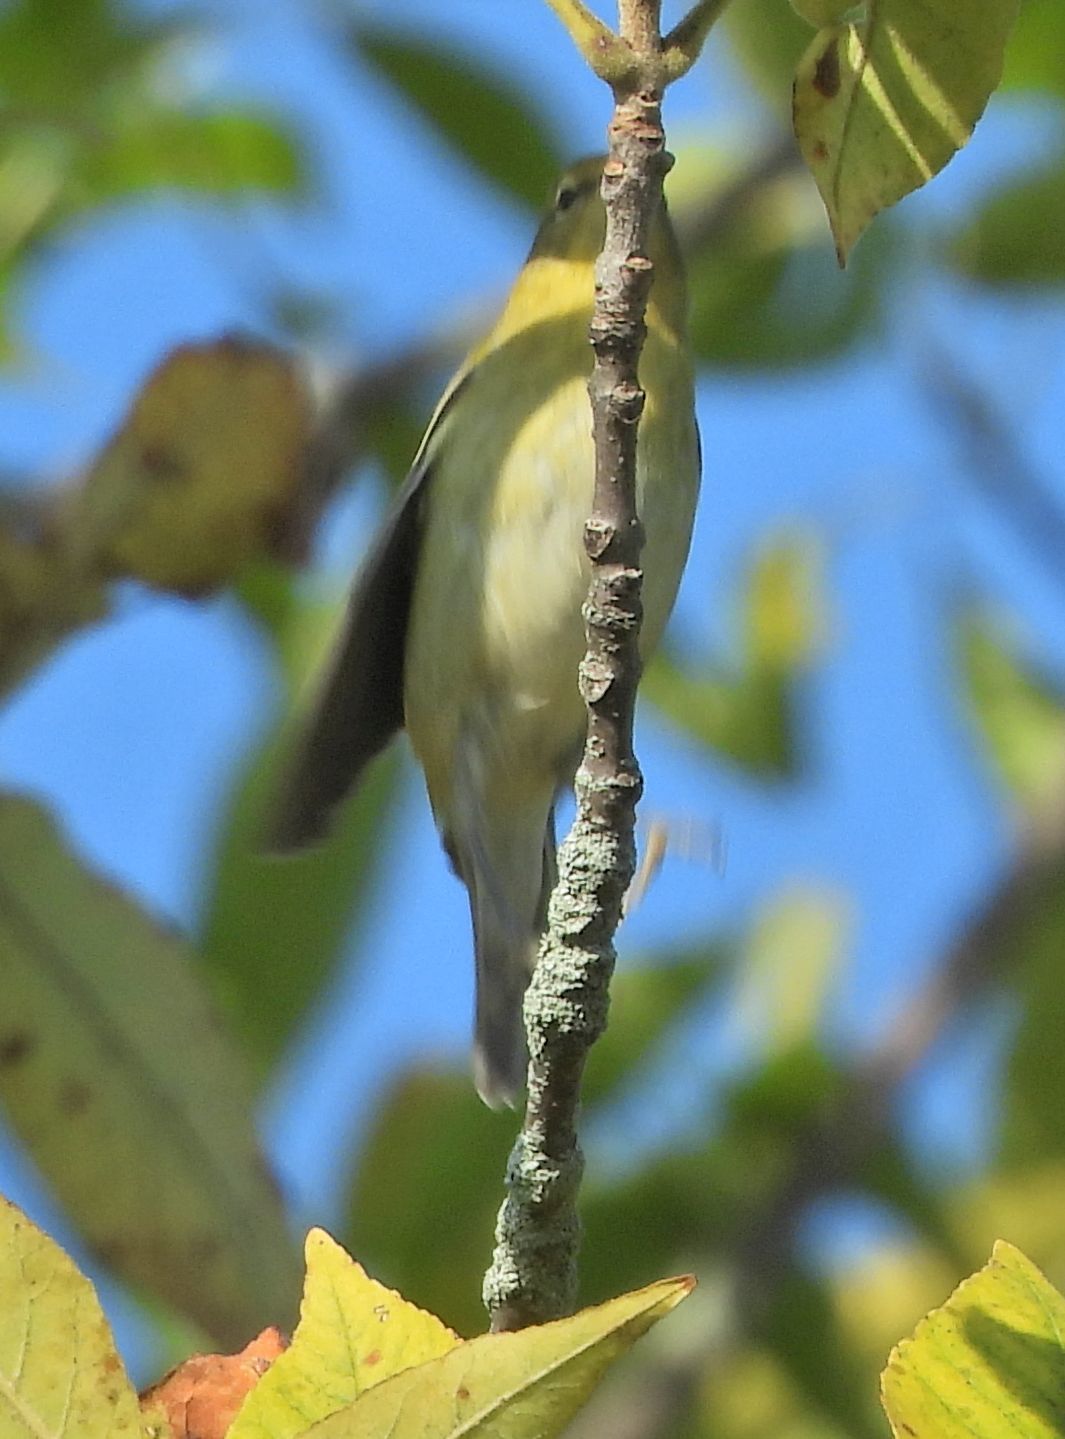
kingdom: Animalia
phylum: Chordata
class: Aves
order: Passeriformes
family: Parulidae
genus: Leiothlypis
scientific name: Leiothlypis peregrina
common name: Tennessee warbler
